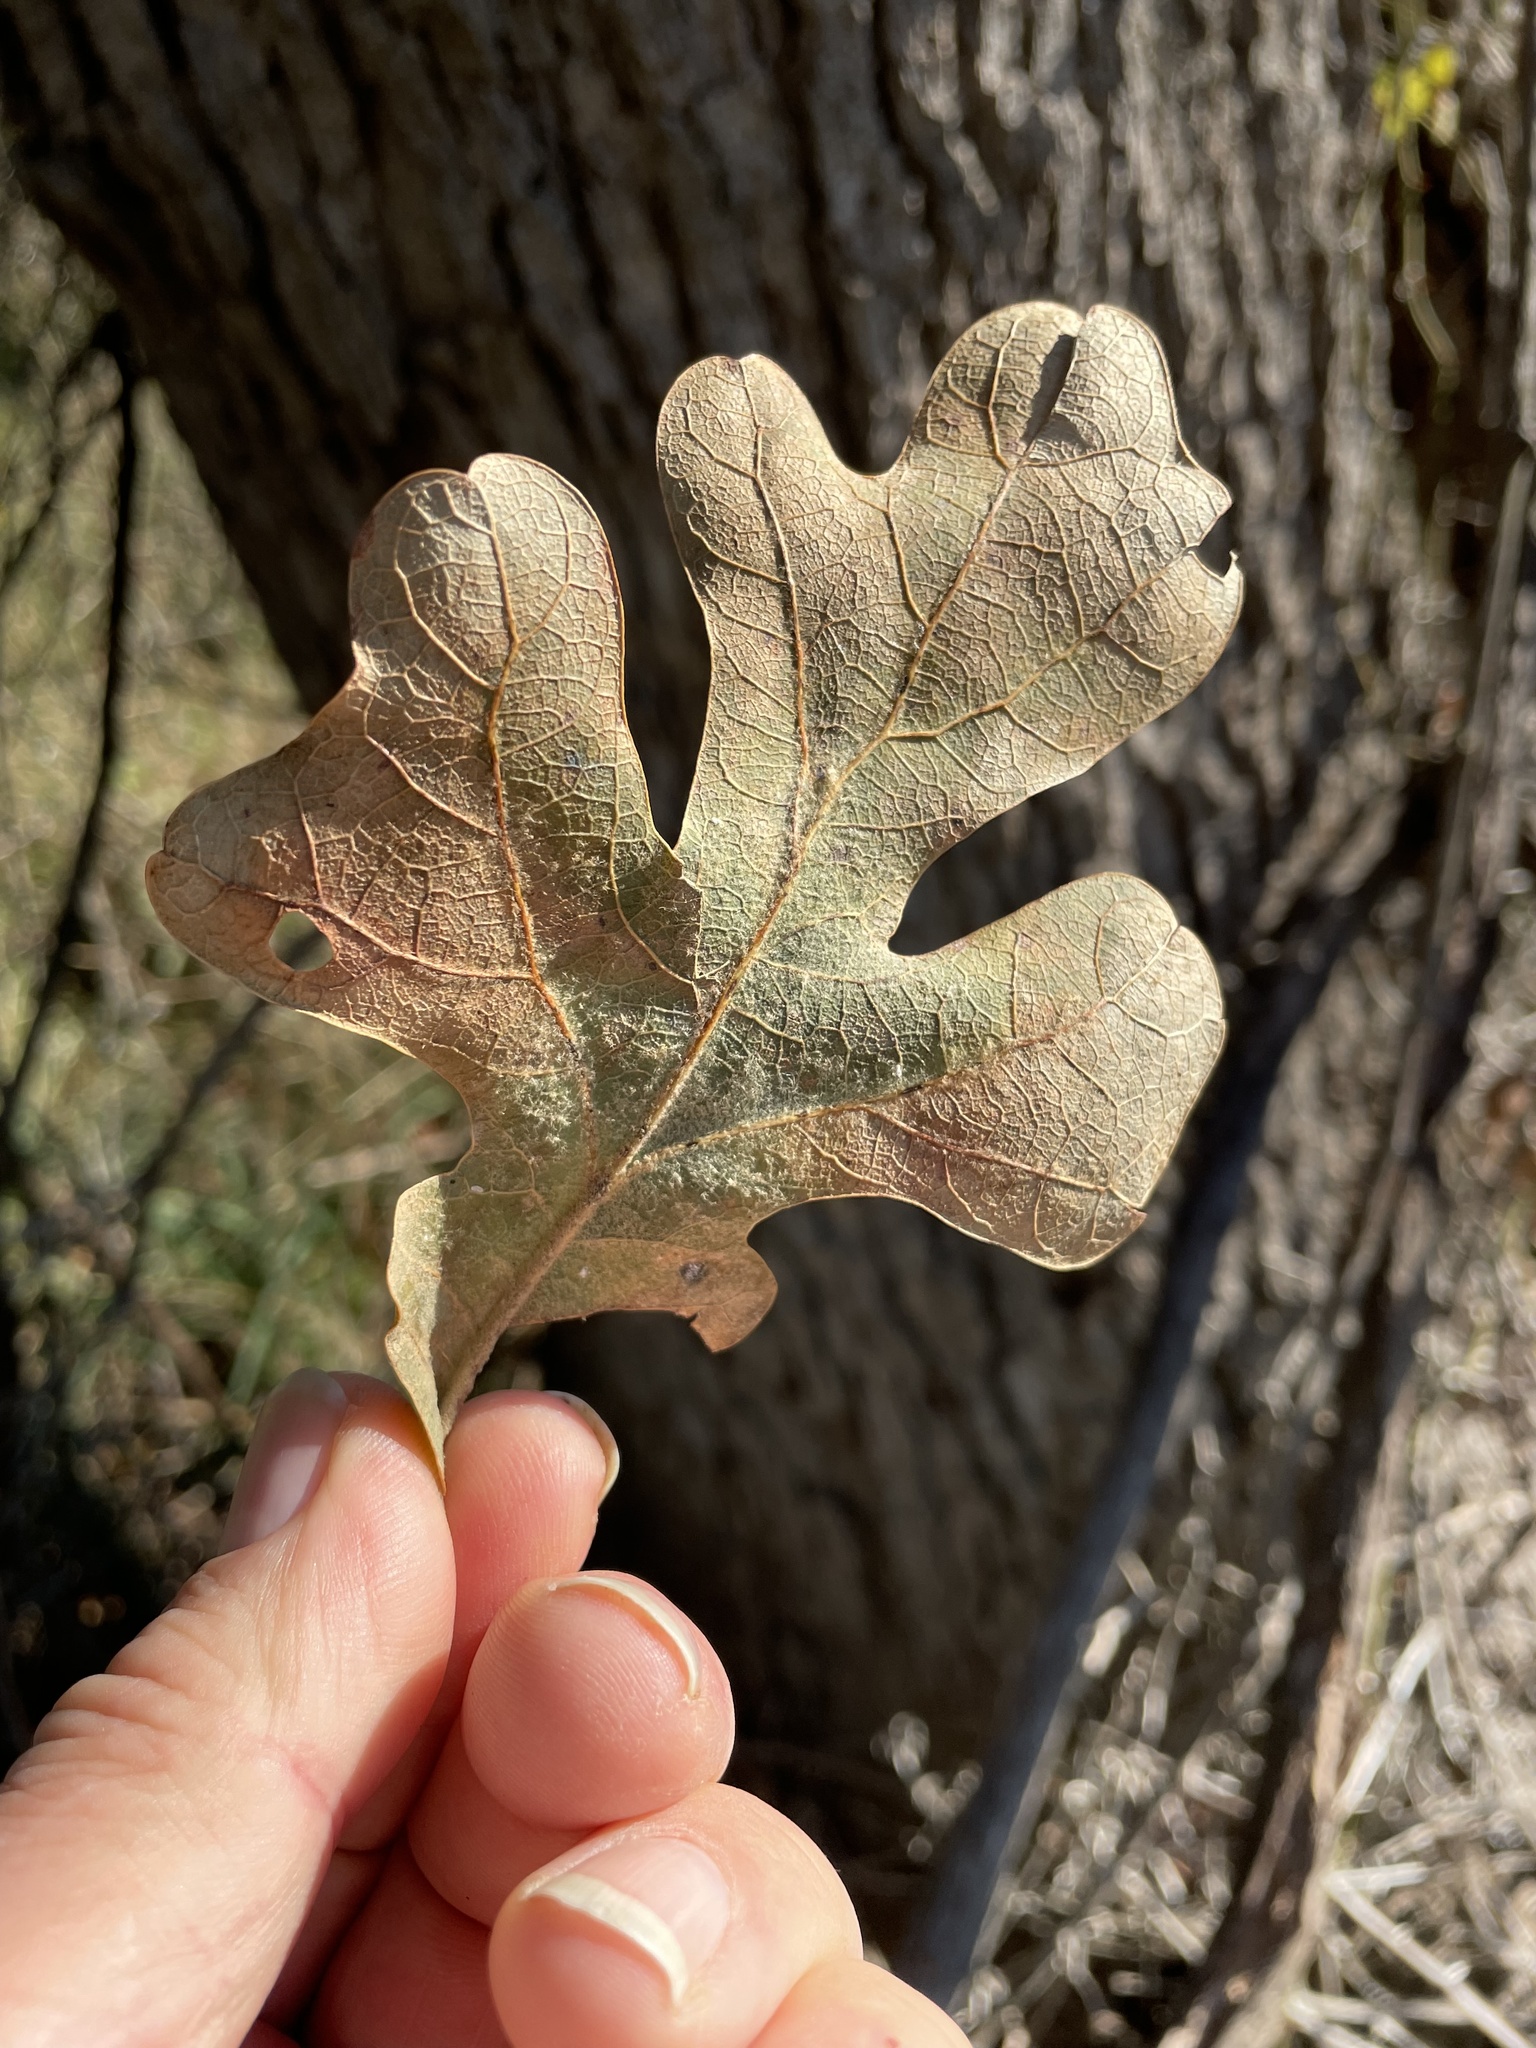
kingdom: Plantae
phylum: Tracheophyta
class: Magnoliopsida
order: Fagales
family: Fagaceae
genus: Quercus
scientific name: Quercus stellata
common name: Post oak
